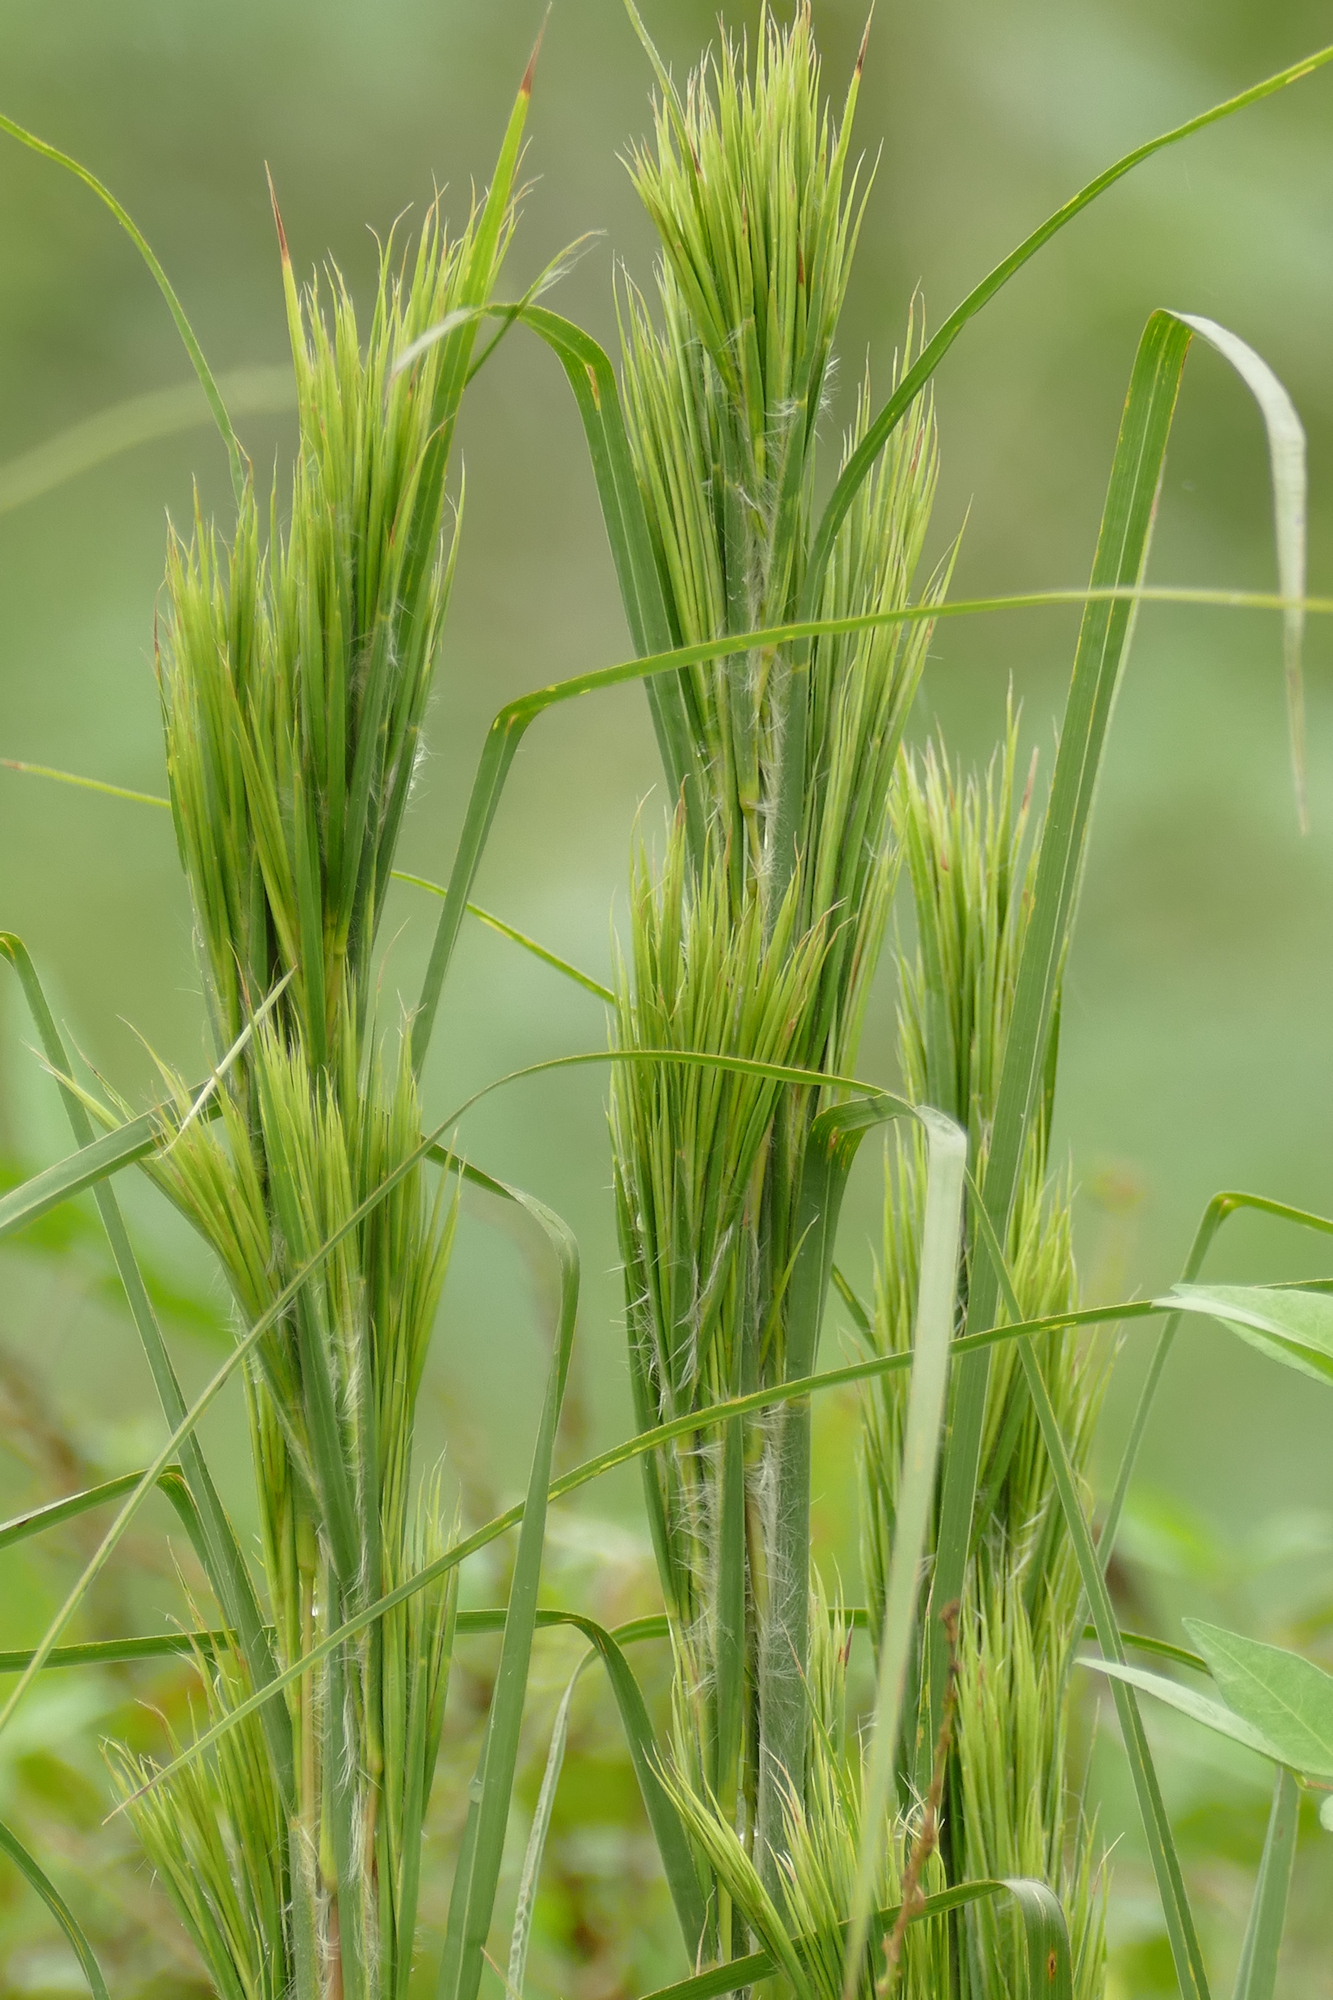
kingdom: Plantae
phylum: Tracheophyta
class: Liliopsida
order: Poales
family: Poaceae
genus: Andropogon
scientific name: Andropogon tenuispatheus
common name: Bushy bluestem
